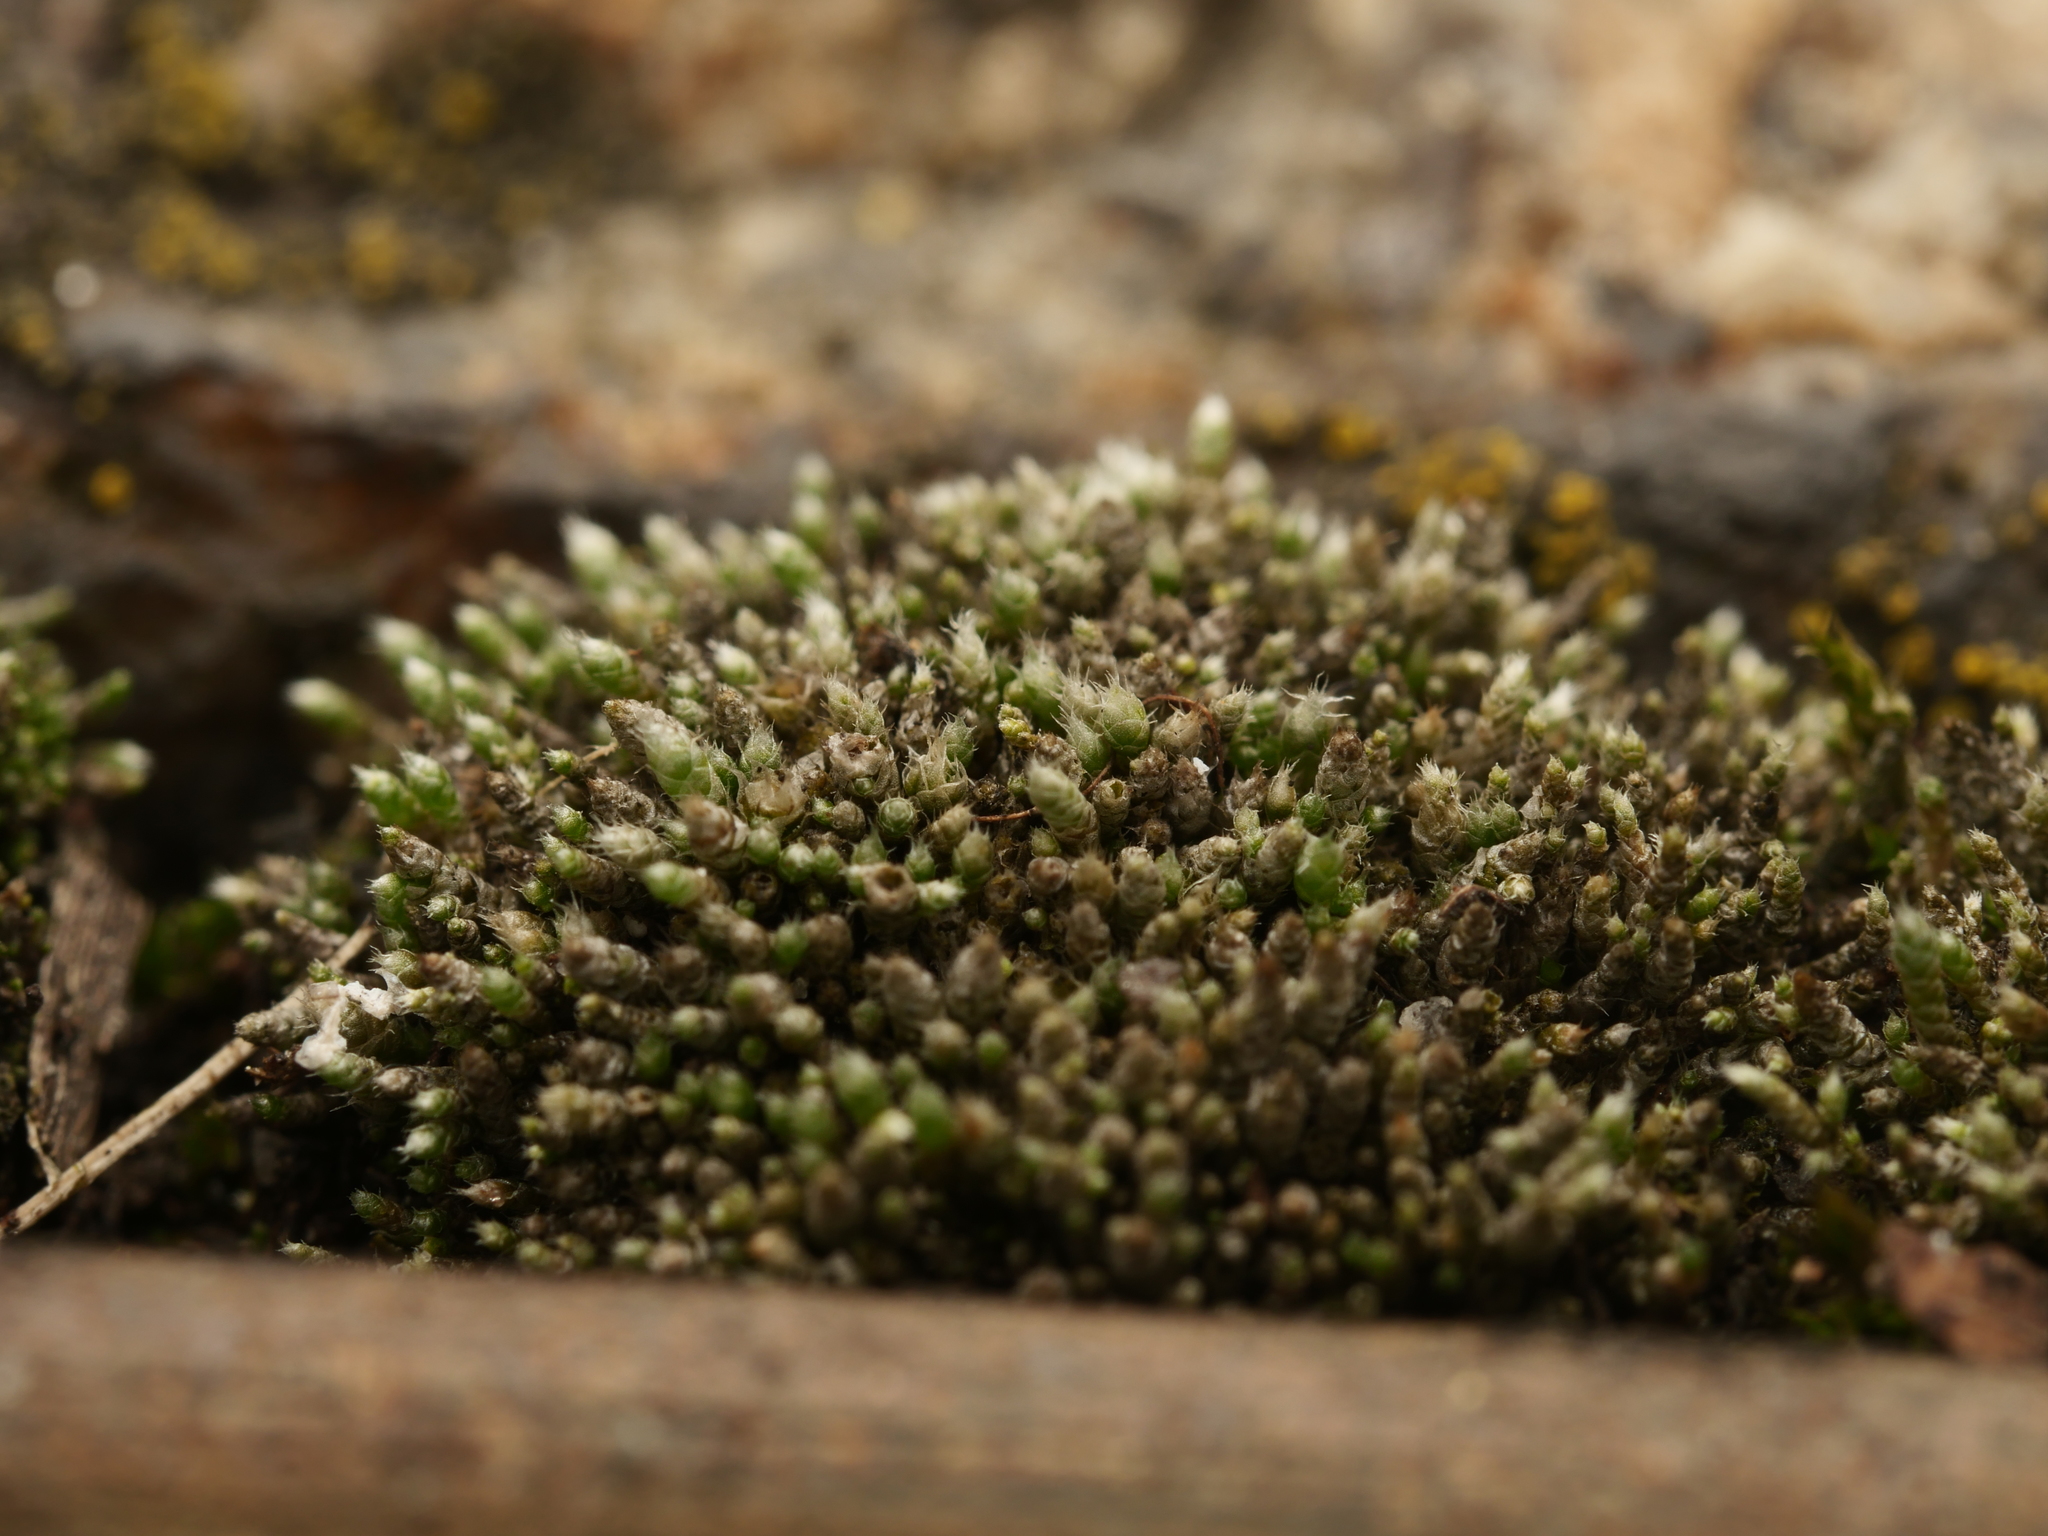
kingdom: Plantae
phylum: Bryophyta
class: Bryopsida
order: Bryales
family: Bryaceae
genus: Bryum
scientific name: Bryum argenteum
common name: Silver-moss
